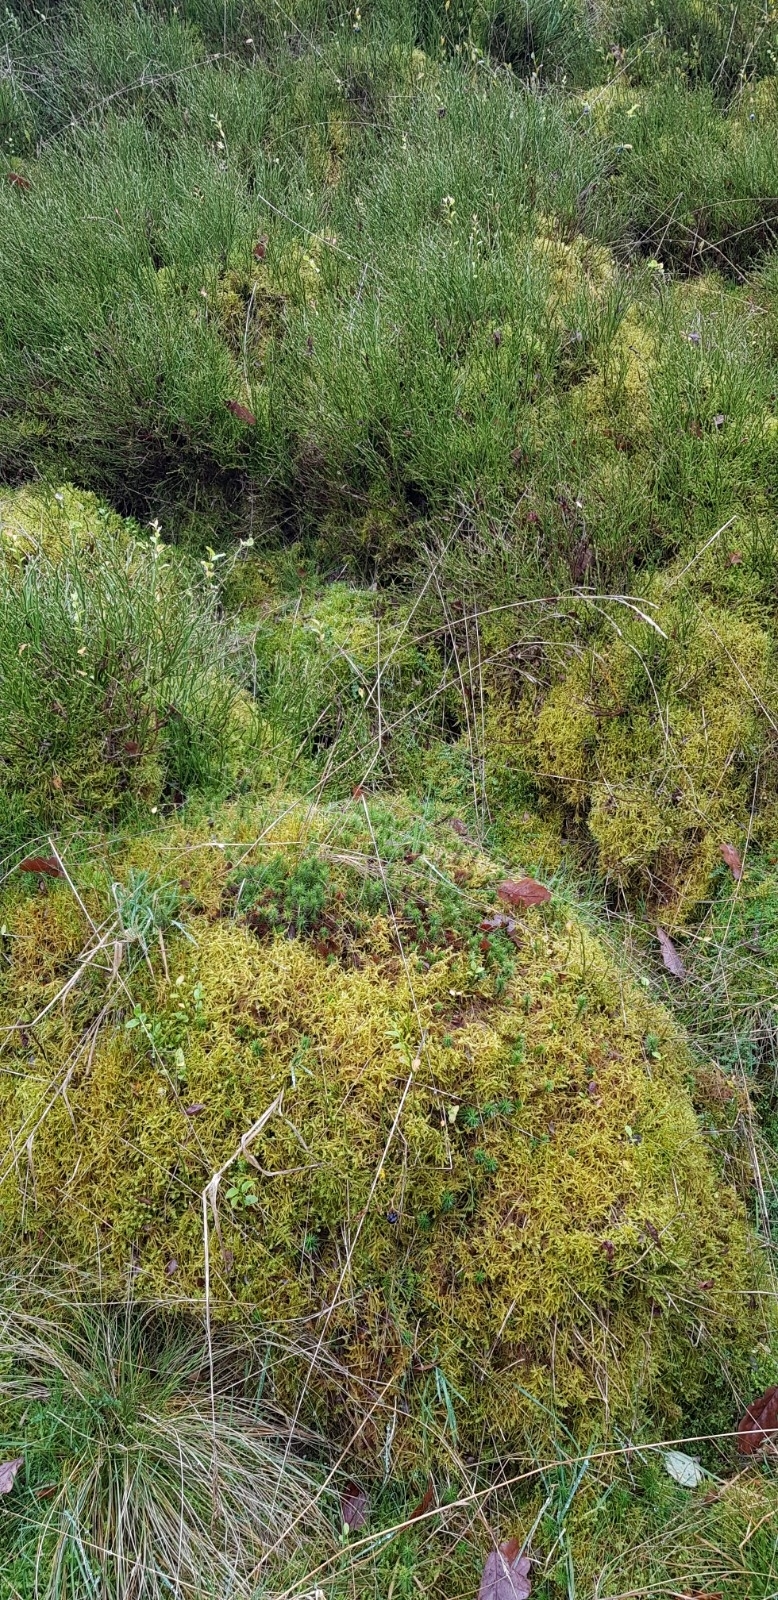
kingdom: Plantae
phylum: Bryophyta
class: Bryopsida
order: Hypnales
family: Hylocomiaceae
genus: Pleurozium
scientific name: Pleurozium schreberi
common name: Red-stemmed feather moss
